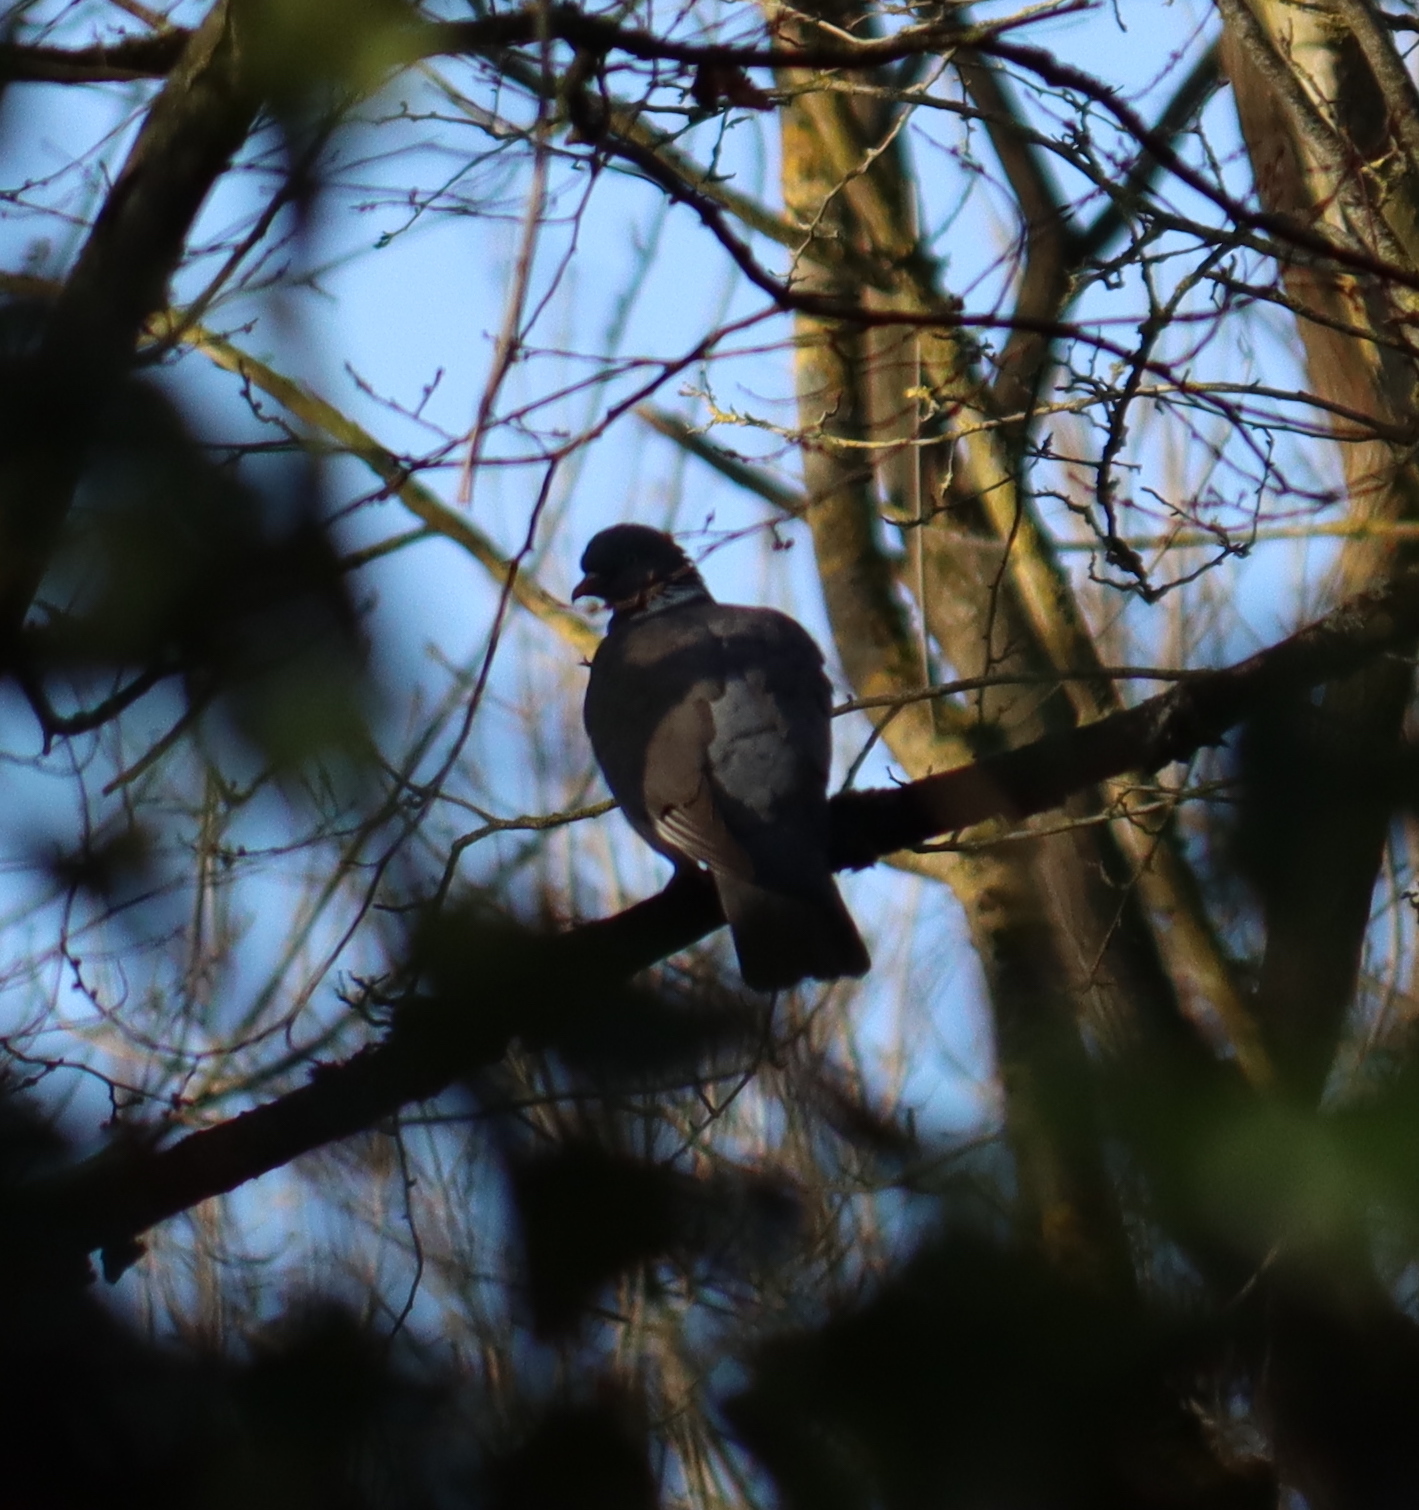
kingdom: Animalia
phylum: Chordata
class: Aves
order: Columbiformes
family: Columbidae
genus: Columba
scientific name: Columba palumbus
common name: Common wood pigeon
